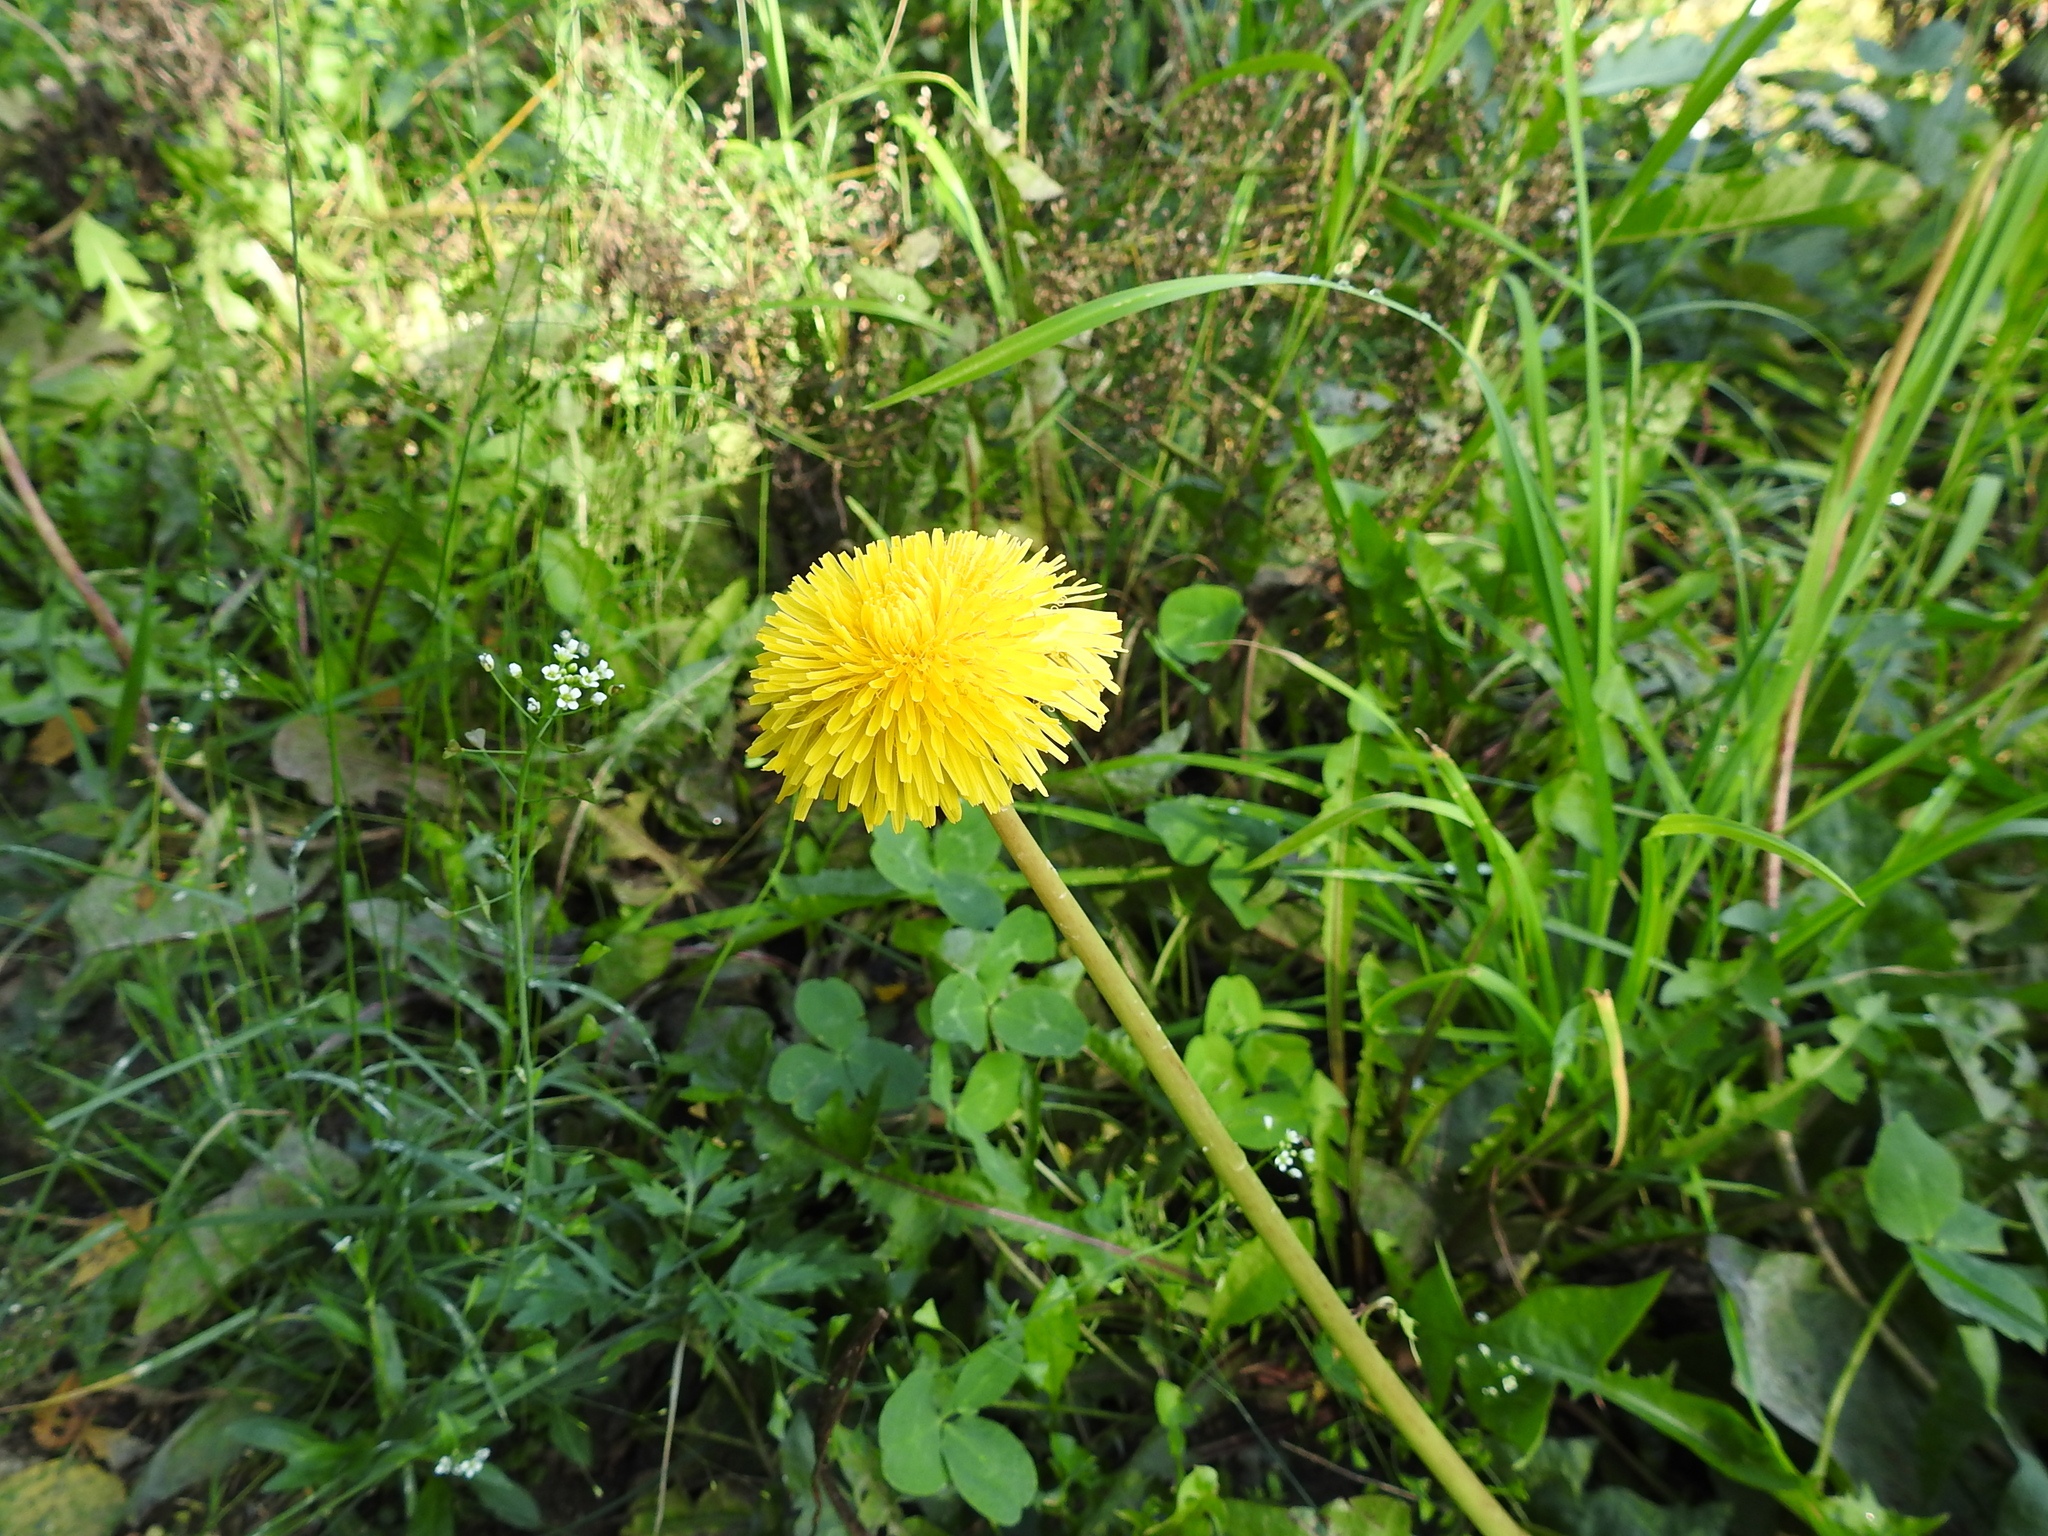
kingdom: Plantae
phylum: Tracheophyta
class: Magnoliopsida
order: Asterales
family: Asteraceae
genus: Taraxacum
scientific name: Taraxacum officinale
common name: Common dandelion
